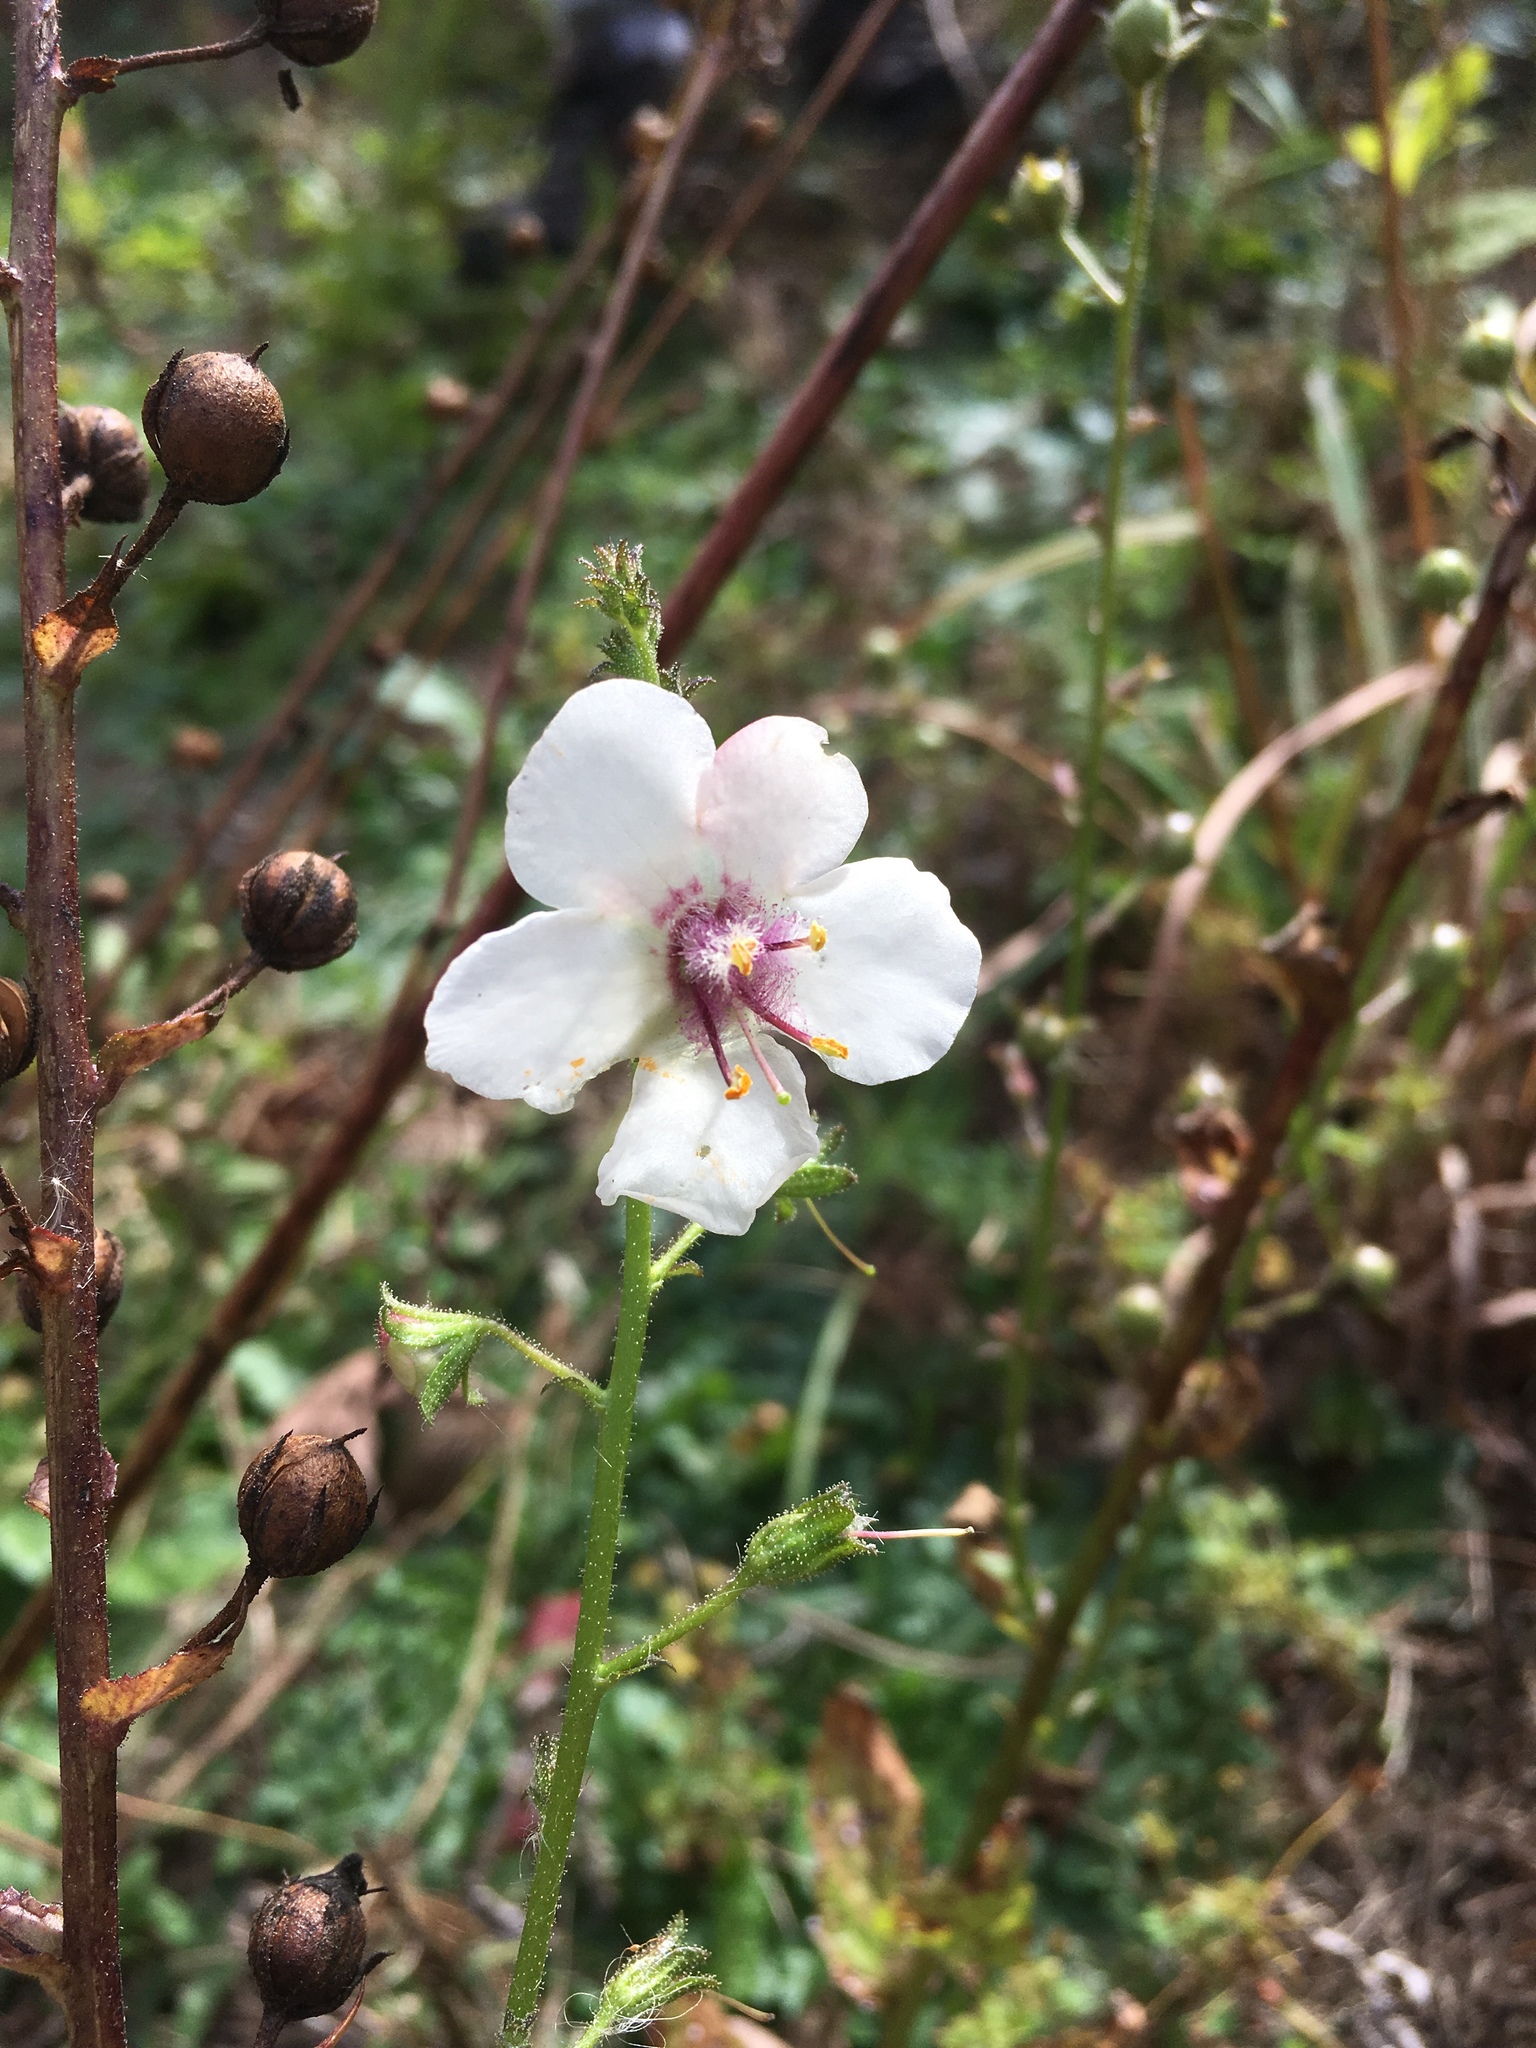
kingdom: Plantae
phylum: Tracheophyta
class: Magnoliopsida
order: Lamiales
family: Scrophulariaceae
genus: Verbascum
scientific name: Verbascum blattaria
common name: Moth mullein
